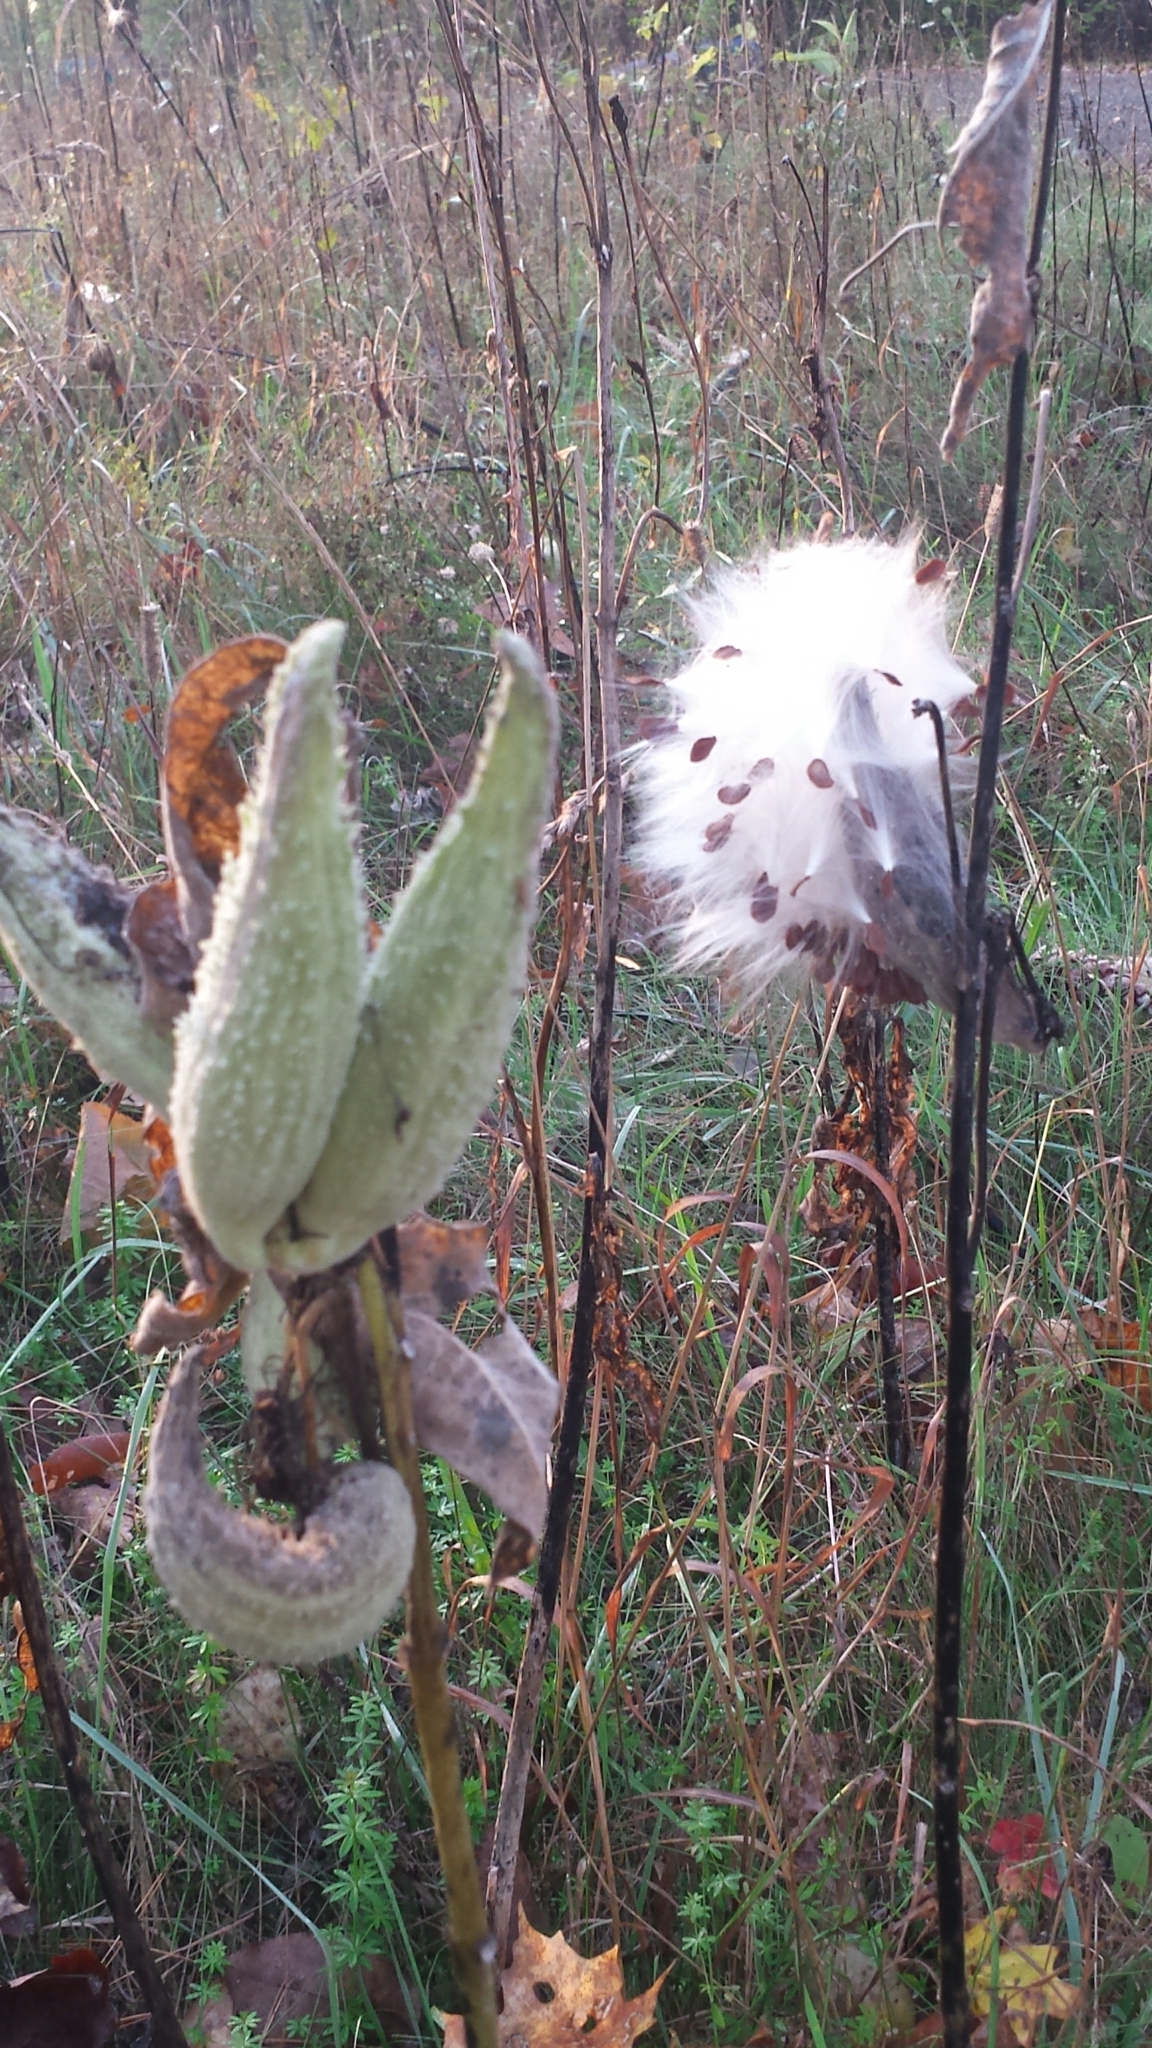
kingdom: Plantae
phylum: Tracheophyta
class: Magnoliopsida
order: Gentianales
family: Apocynaceae
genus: Asclepias
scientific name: Asclepias syriaca
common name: Common milkweed
